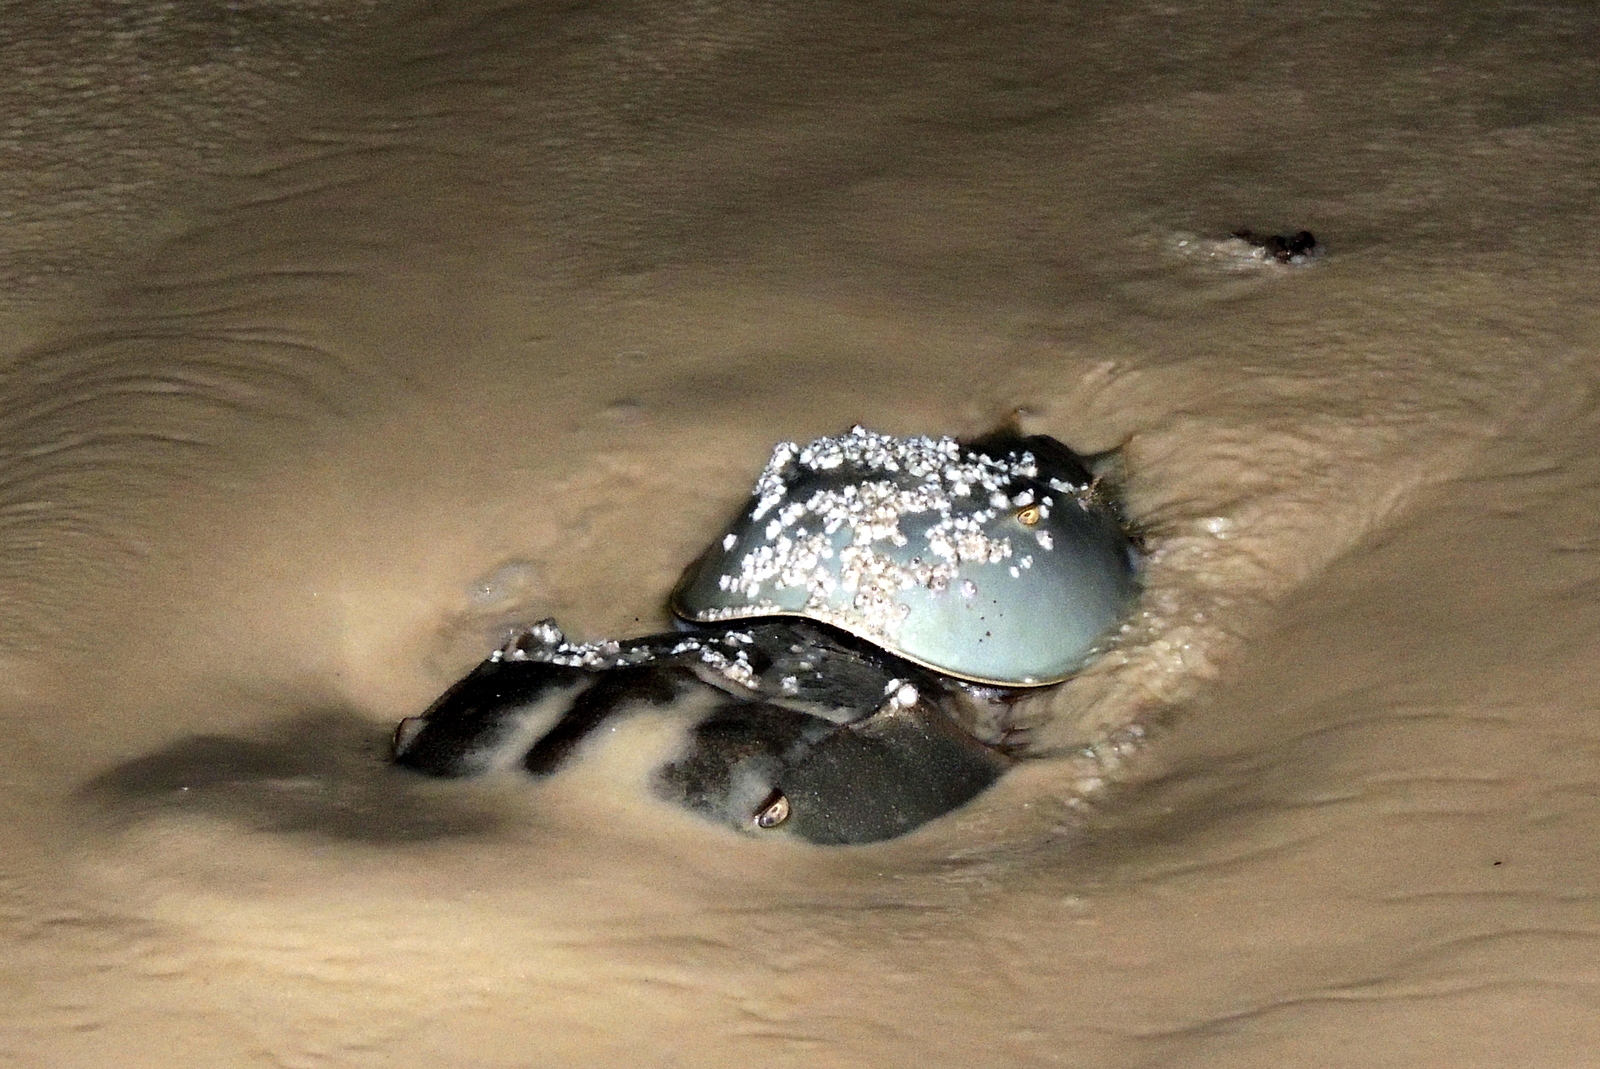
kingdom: Animalia
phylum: Arthropoda
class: Merostomata
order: Xiphosurida
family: Limulidae
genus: Limulus
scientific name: Limulus polyphemus
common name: Horseshoe crab
